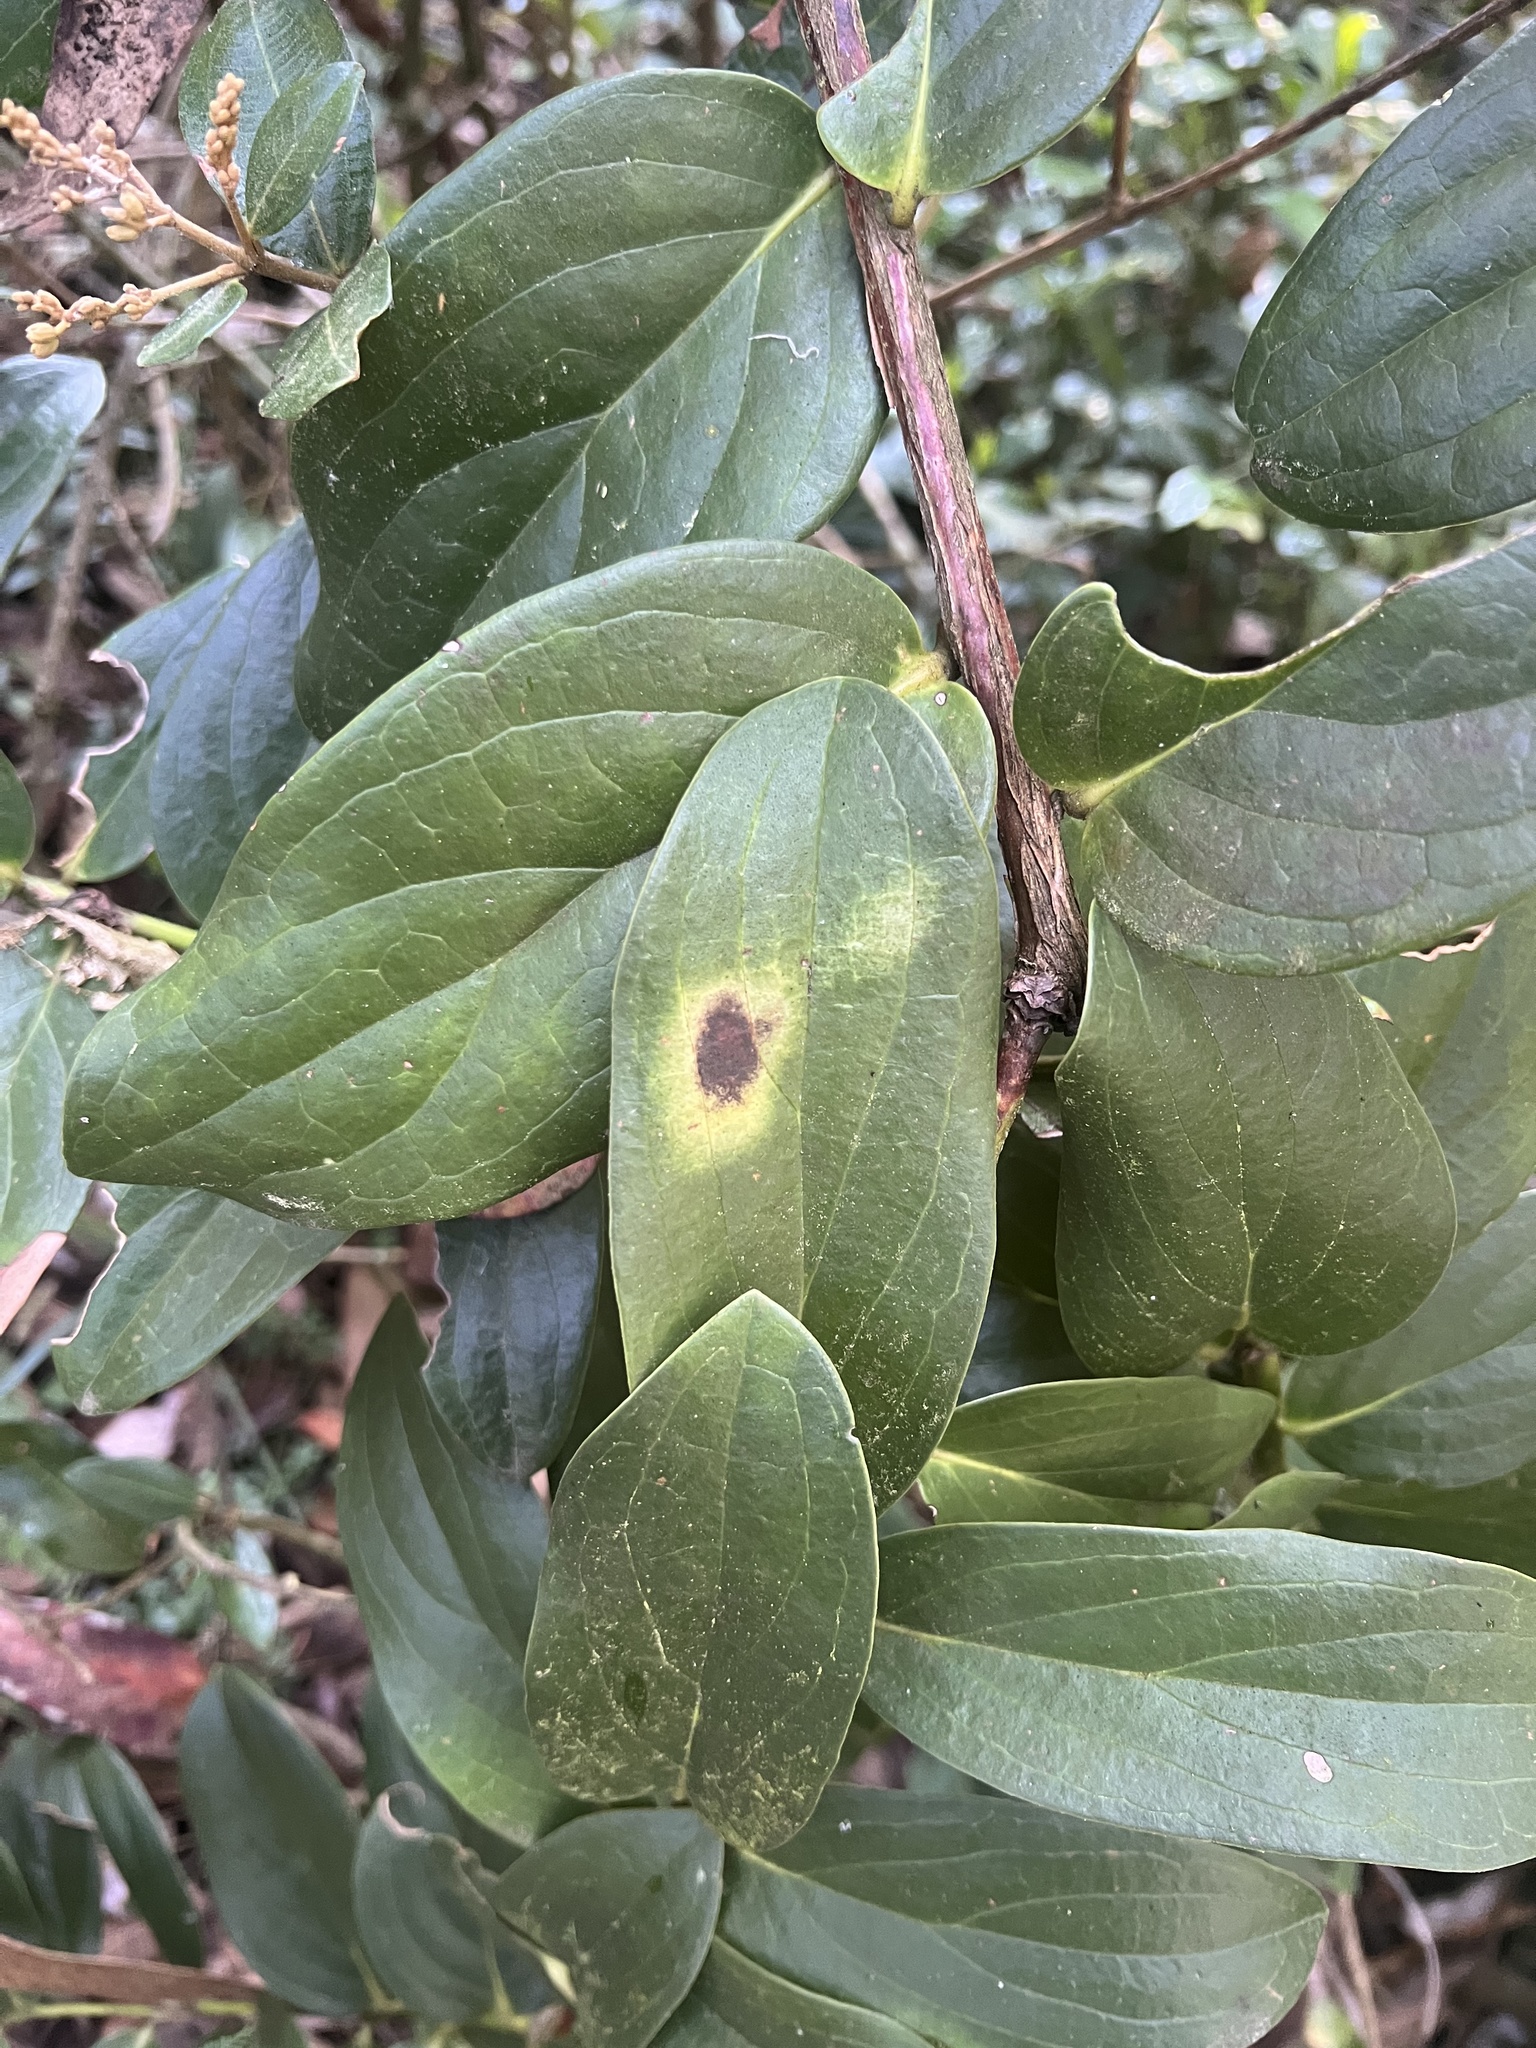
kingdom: Plantae
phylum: Tracheophyta
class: Magnoliopsida
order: Ericales
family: Ericaceae
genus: Macleania
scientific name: Macleania rupestris
